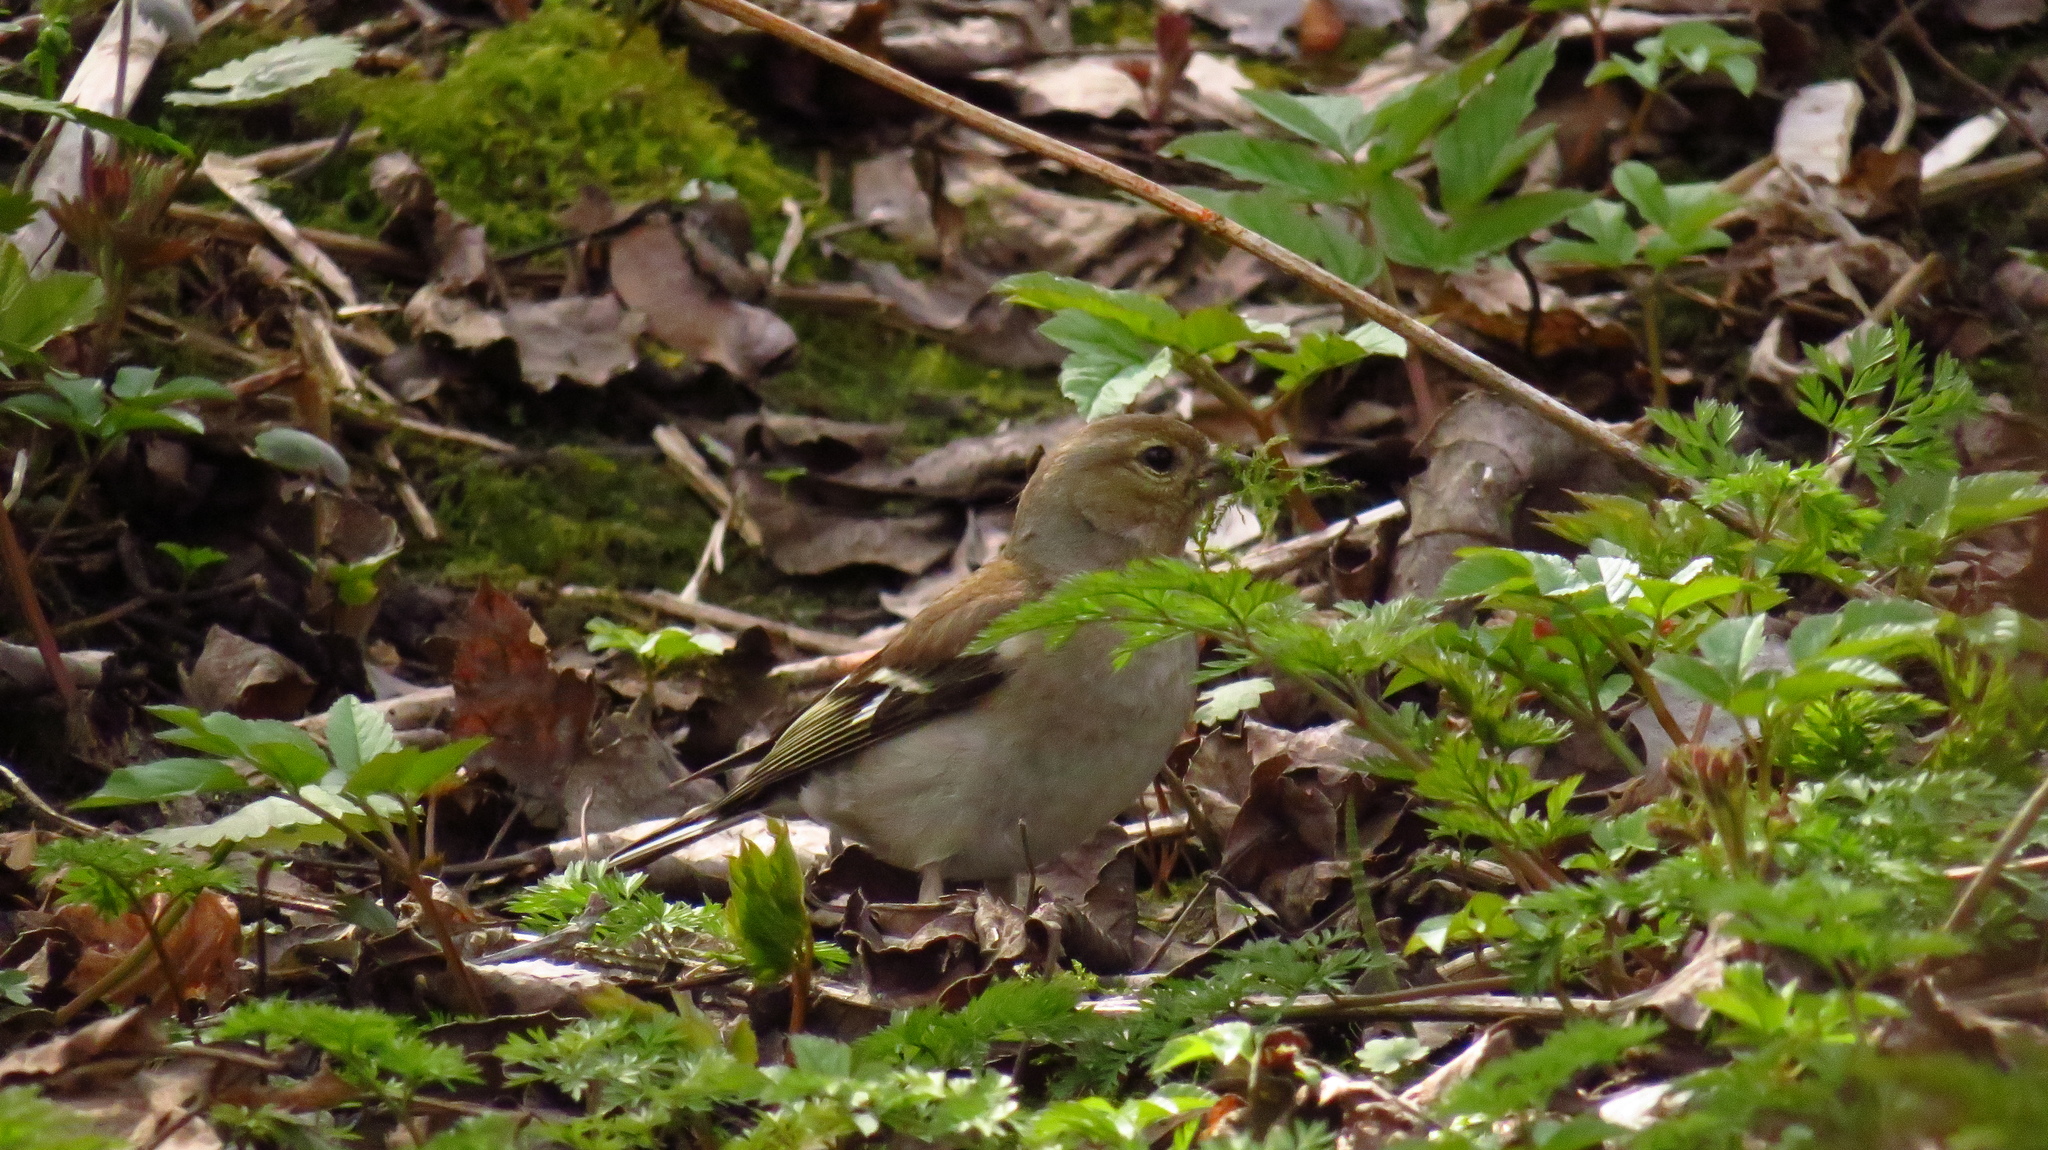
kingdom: Animalia
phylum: Chordata
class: Aves
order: Passeriformes
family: Fringillidae
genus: Fringilla
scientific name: Fringilla coelebs
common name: Common chaffinch
